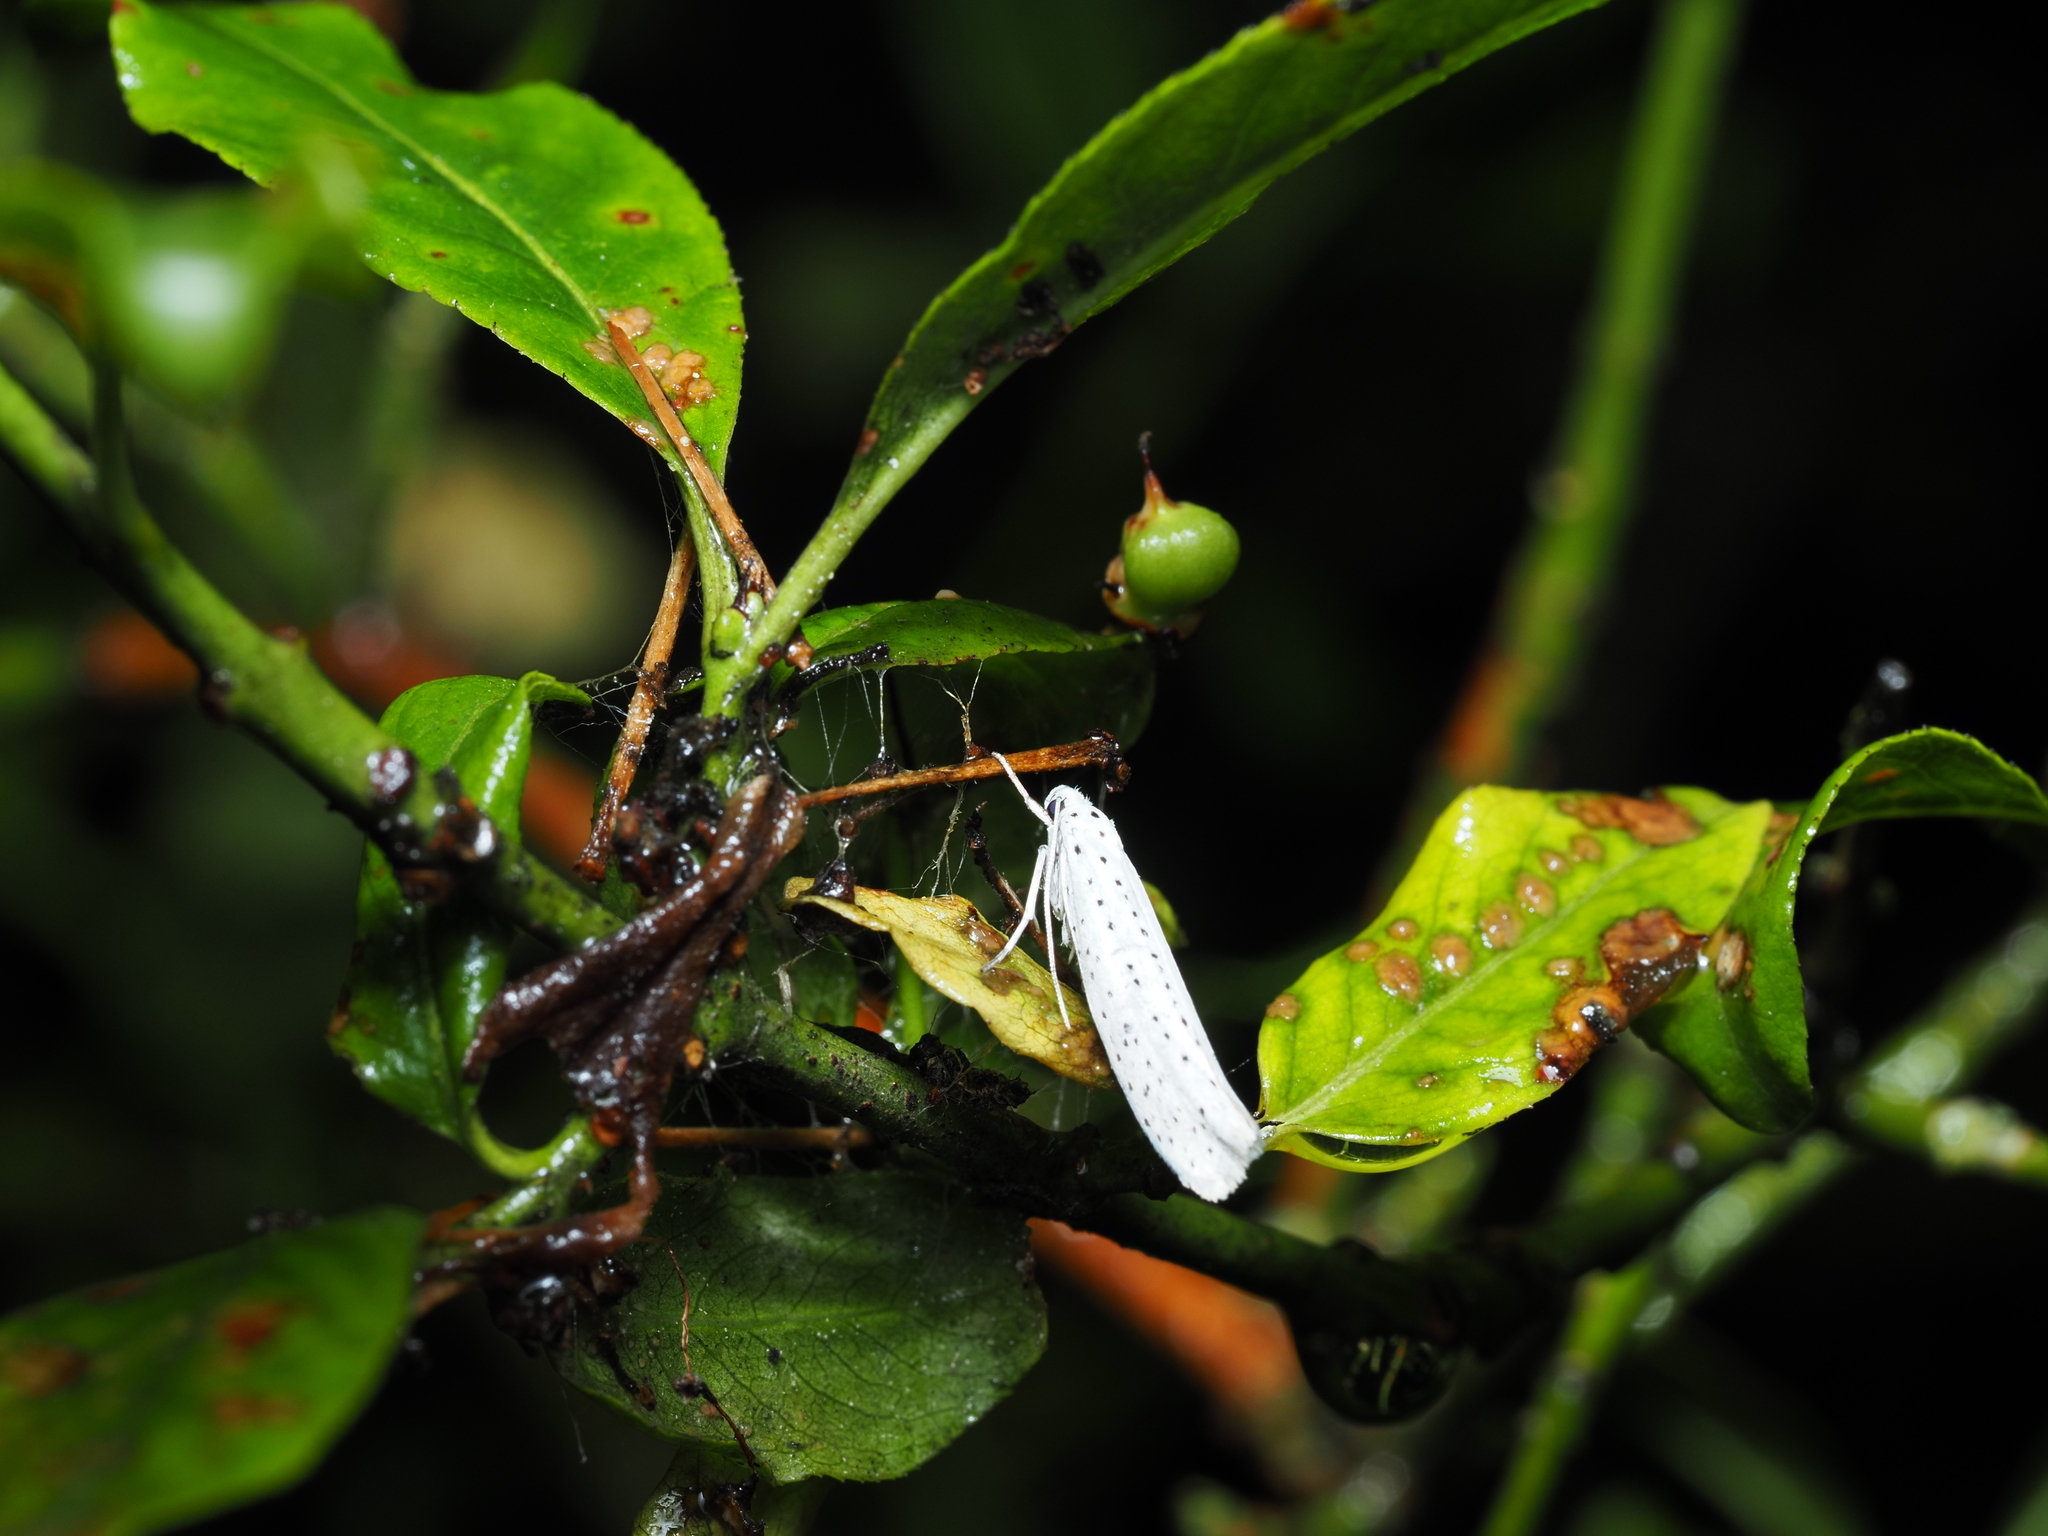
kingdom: Animalia
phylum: Arthropoda
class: Insecta
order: Lepidoptera
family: Yponomeutidae
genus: Yponomeuta
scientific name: Yponomeuta evonymella
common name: Bird-cherry ermine
